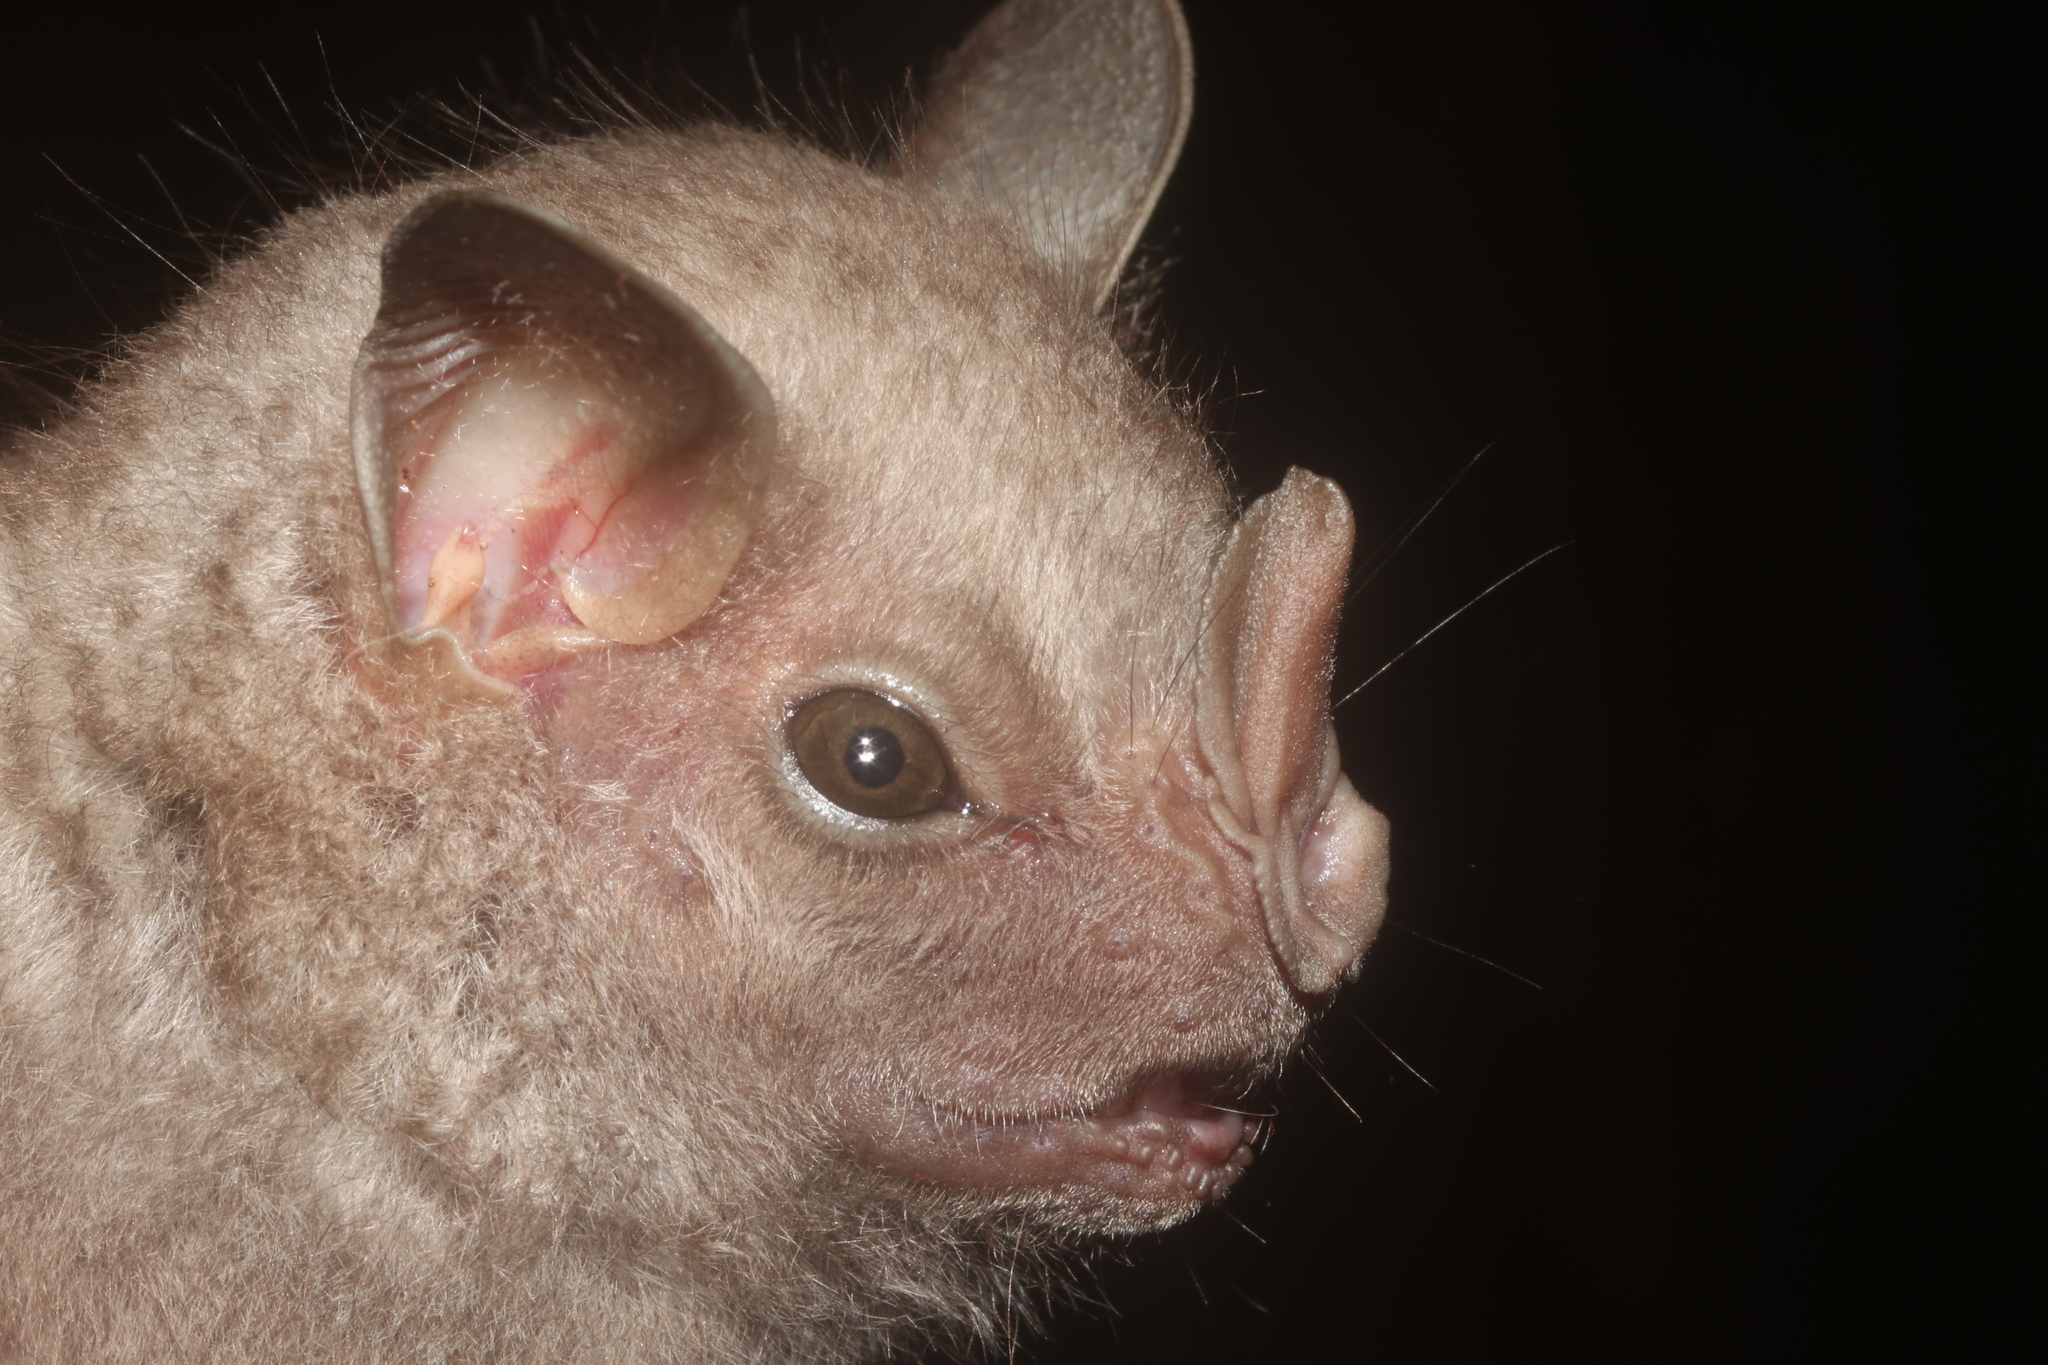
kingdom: Animalia
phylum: Chordata
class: Mammalia
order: Chiroptera
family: Phyllostomidae
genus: Chiroderma
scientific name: Chiroderma villosum
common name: Hairy big-eyed bat
